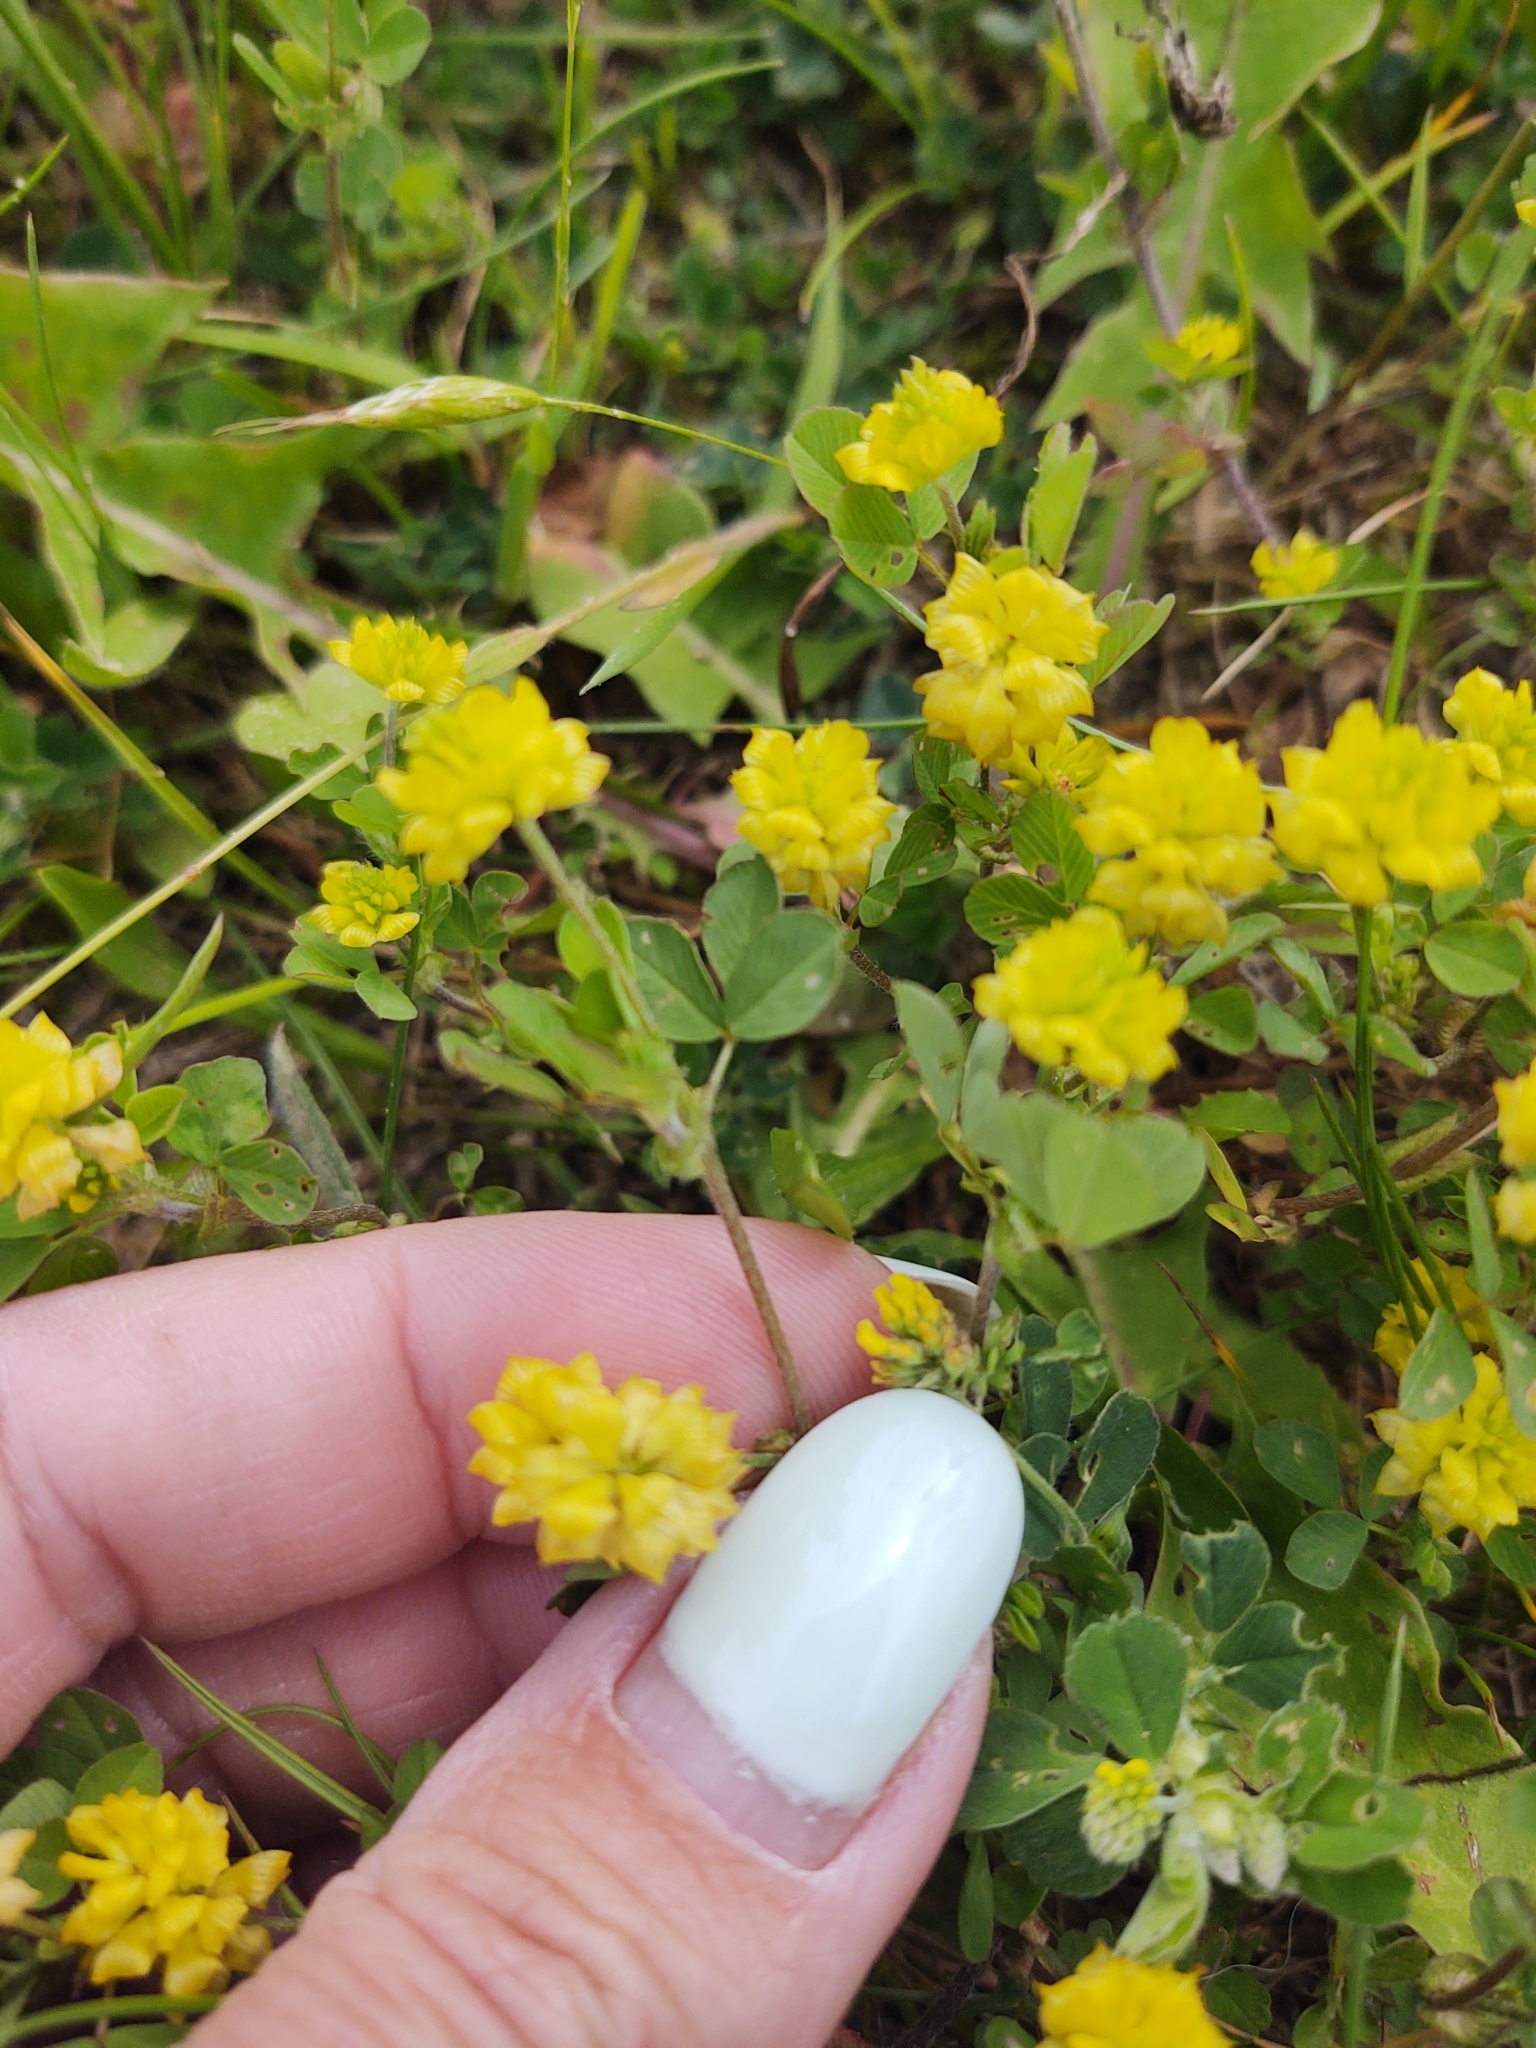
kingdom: Plantae
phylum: Tracheophyta
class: Magnoliopsida
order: Fabales
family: Fabaceae
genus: Trifolium
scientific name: Trifolium campestre
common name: Field clover
